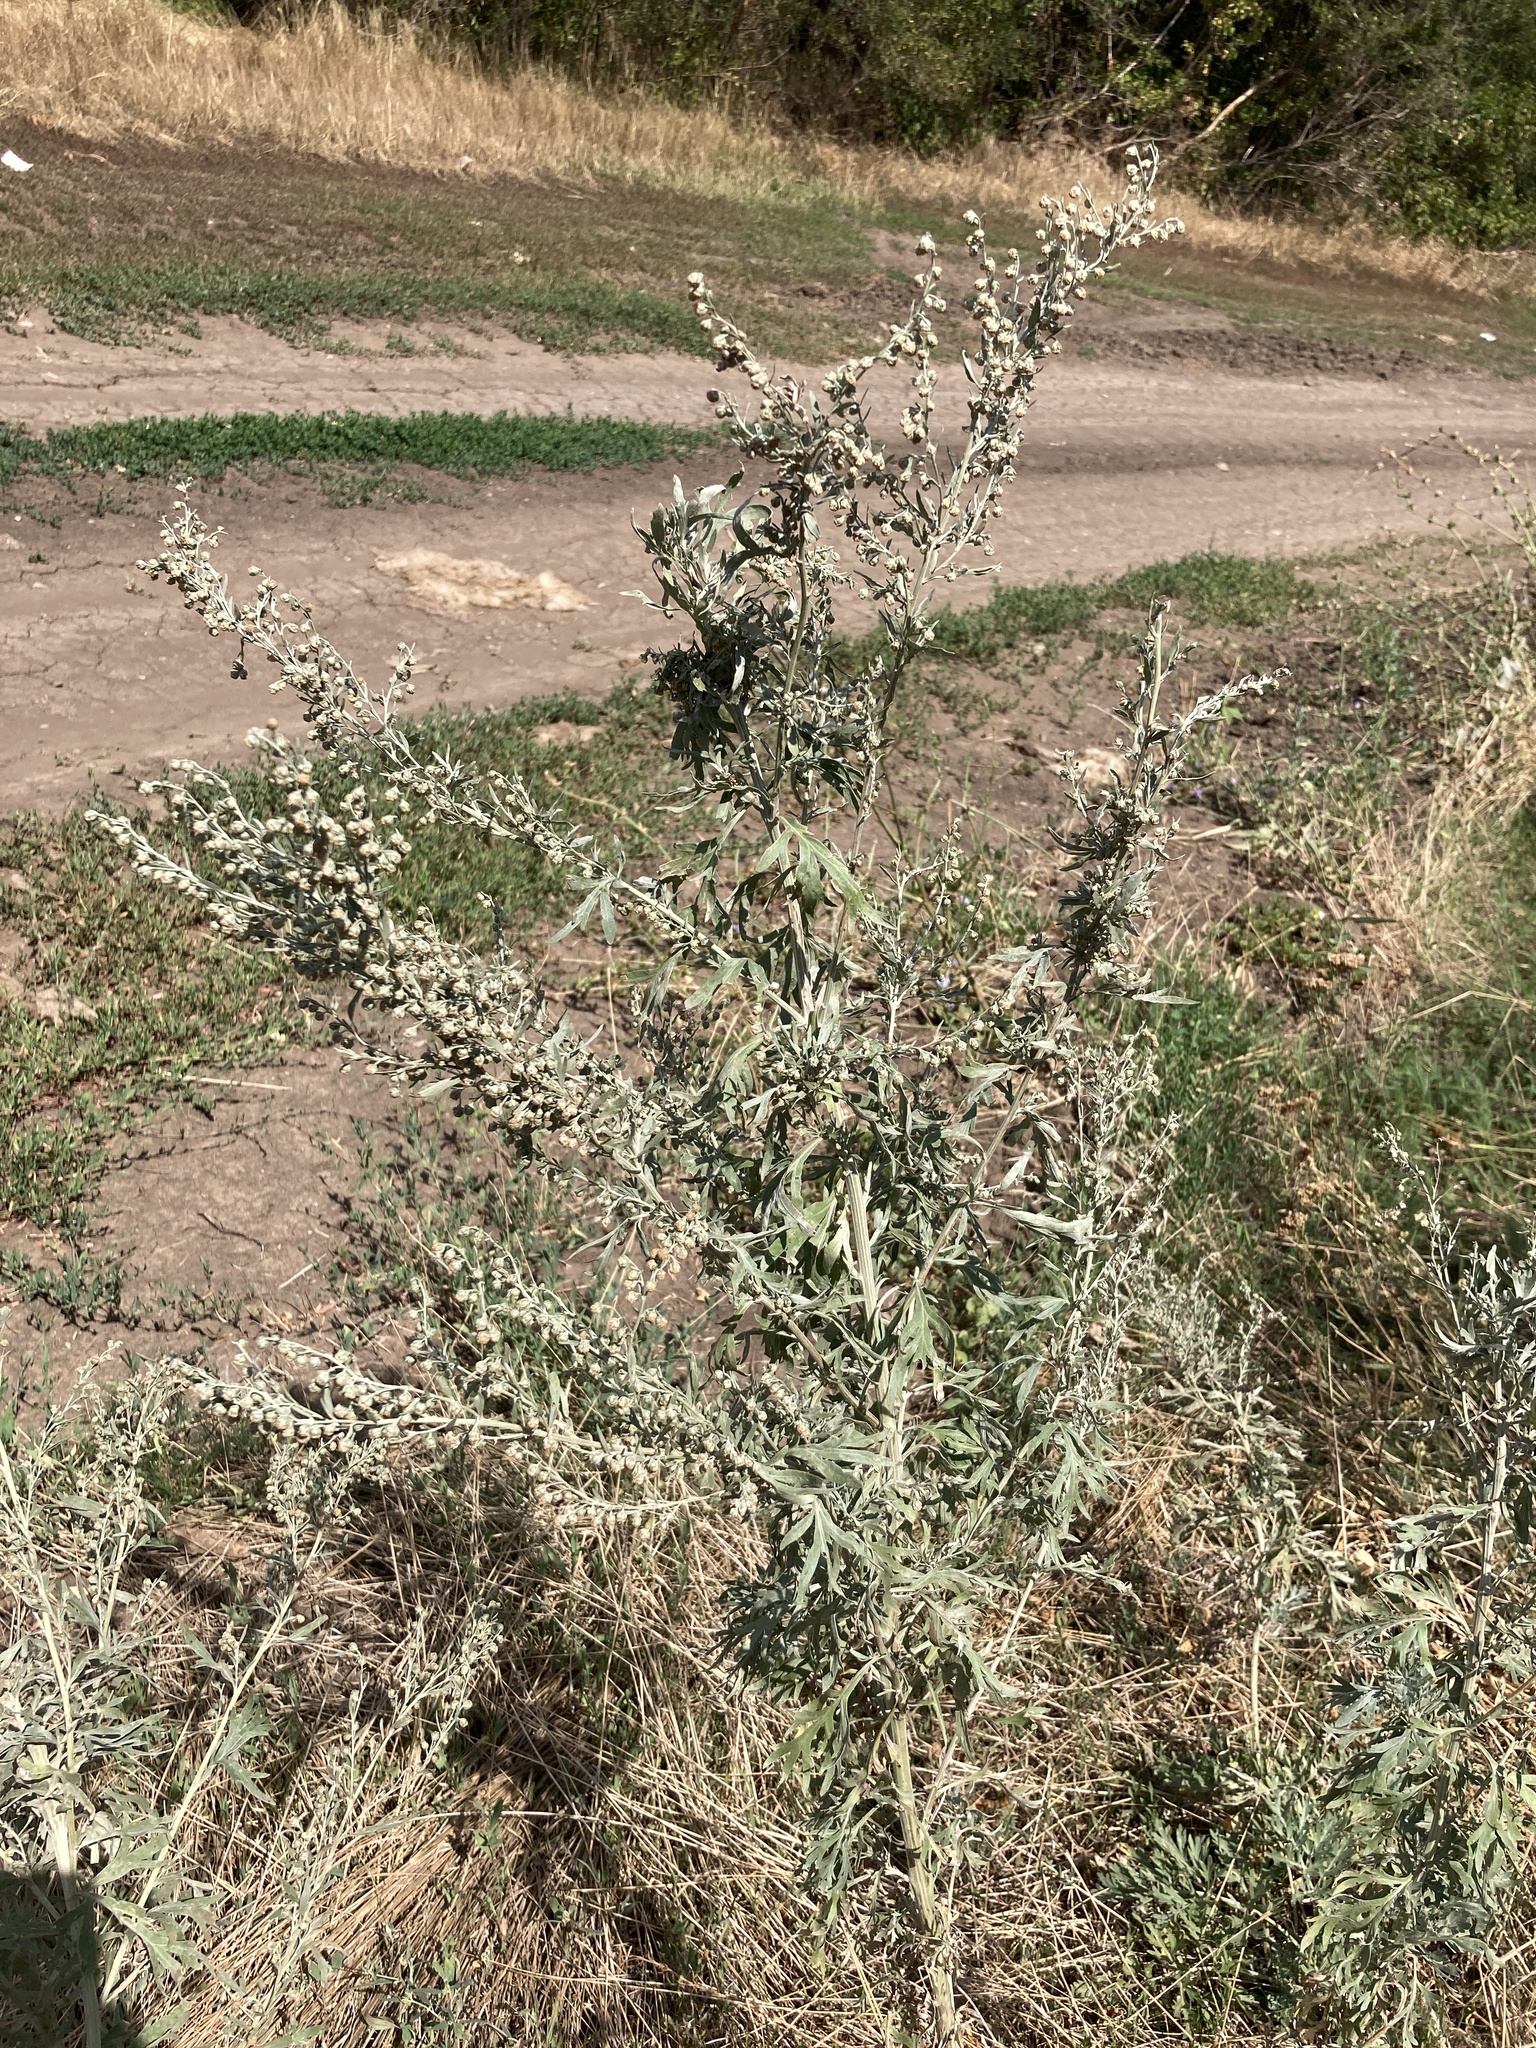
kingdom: Plantae
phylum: Tracheophyta
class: Magnoliopsida
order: Asterales
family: Asteraceae
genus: Artemisia
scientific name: Artemisia absinthium
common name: Wormwood
